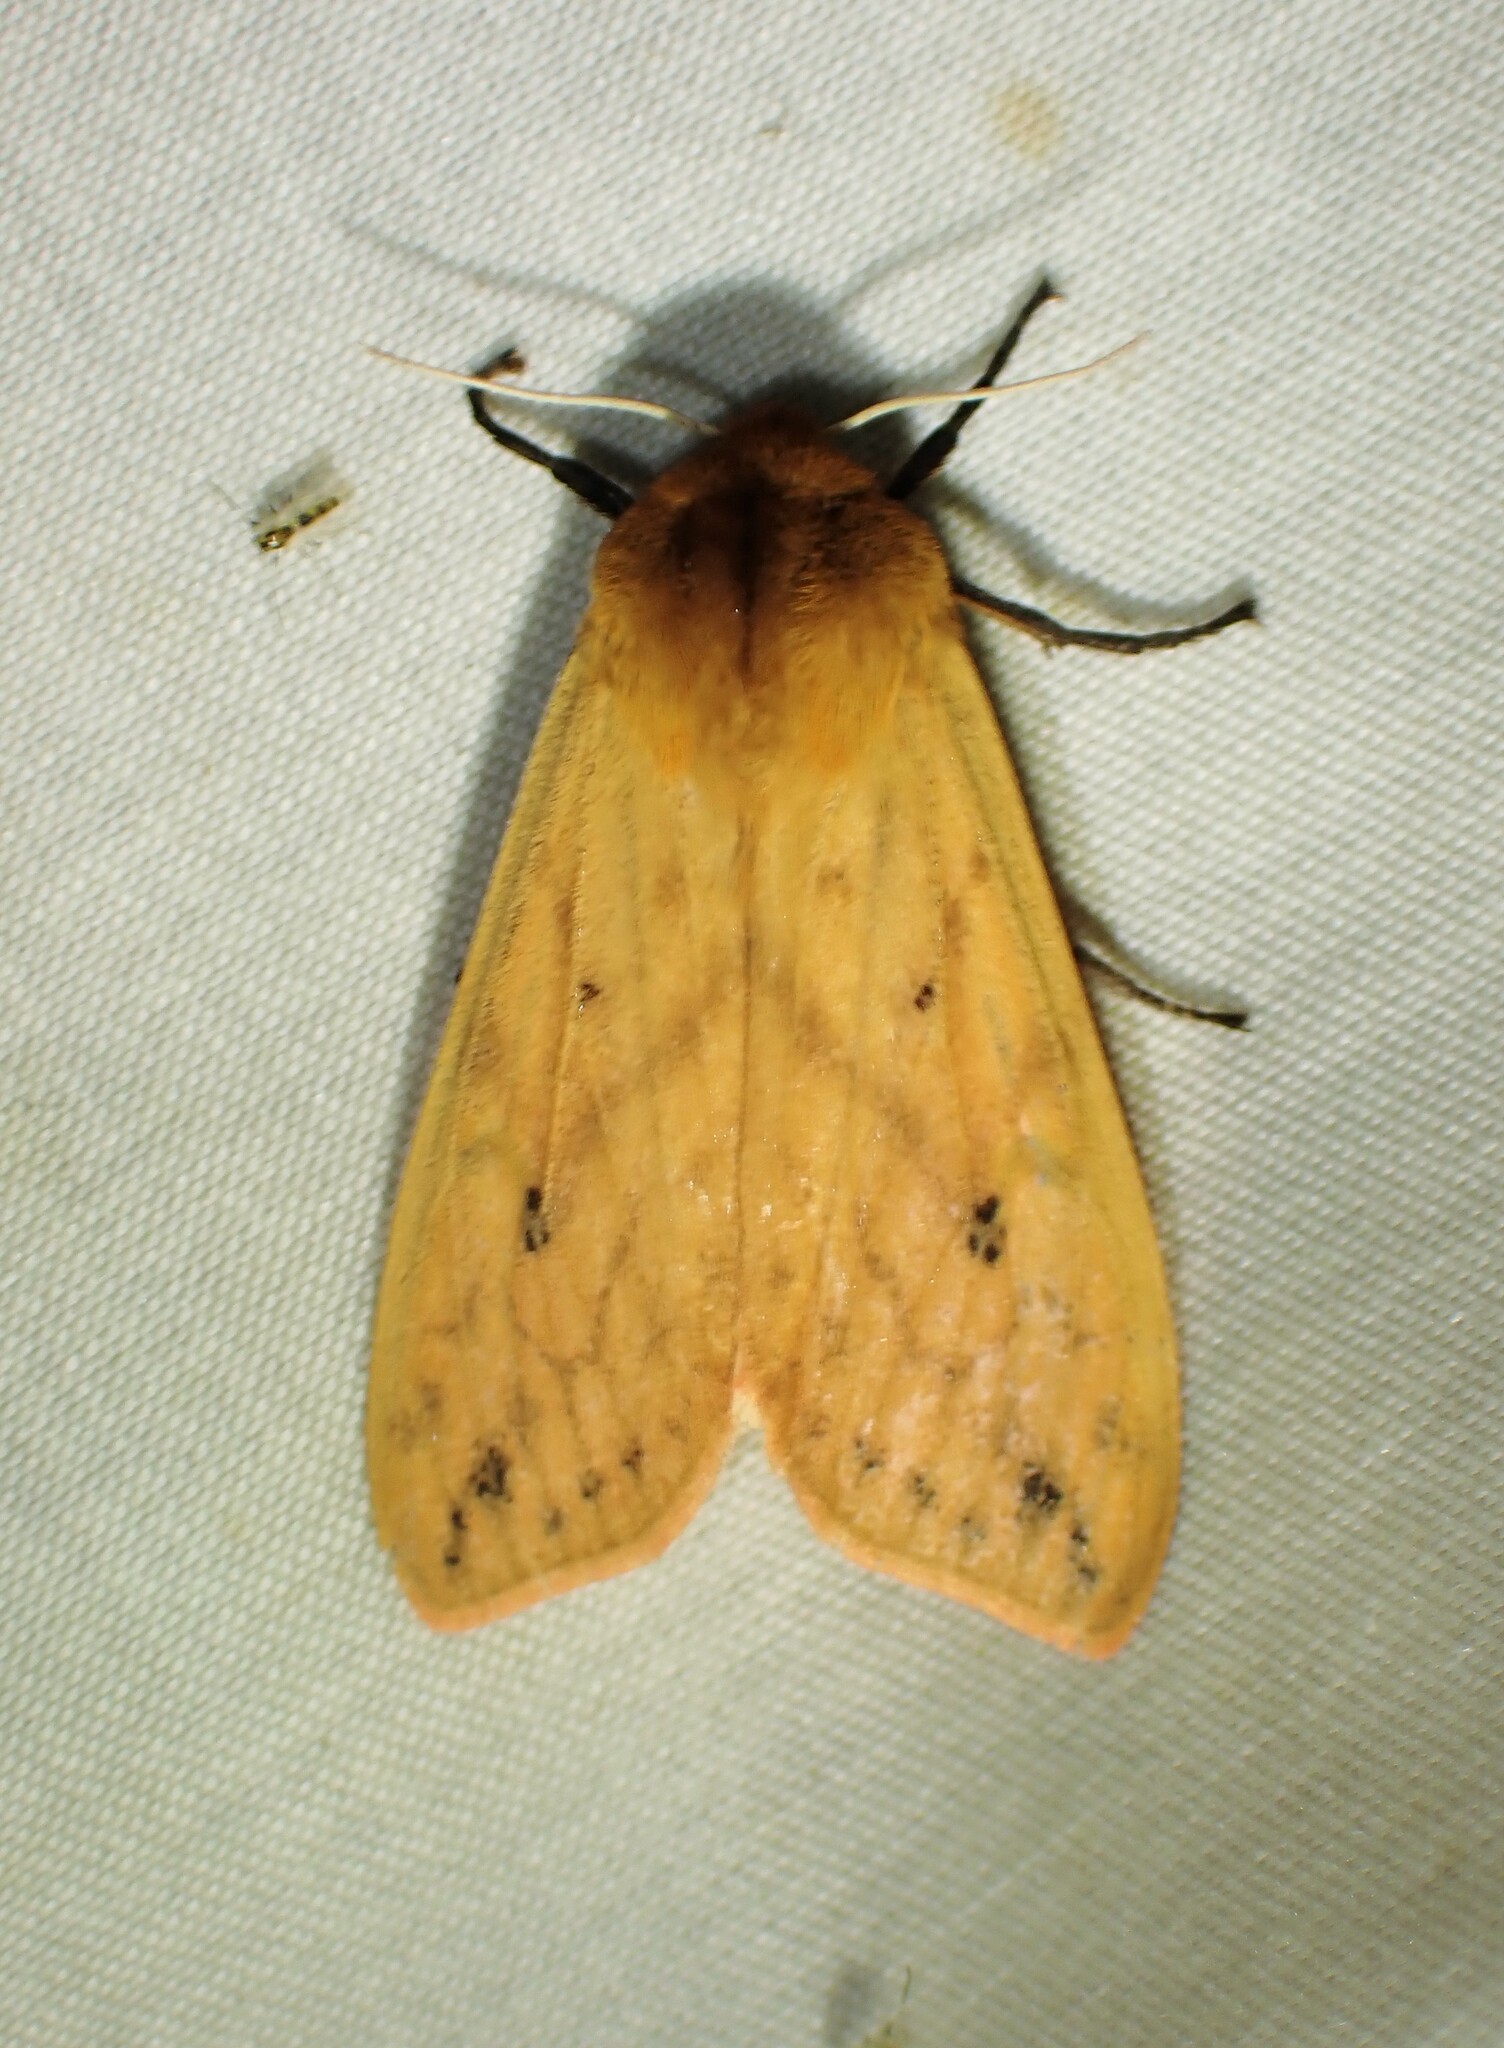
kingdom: Animalia
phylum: Arthropoda
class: Insecta
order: Lepidoptera
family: Erebidae
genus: Pyrrharctia
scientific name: Pyrrharctia isabella
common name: Isabella tiger moth
